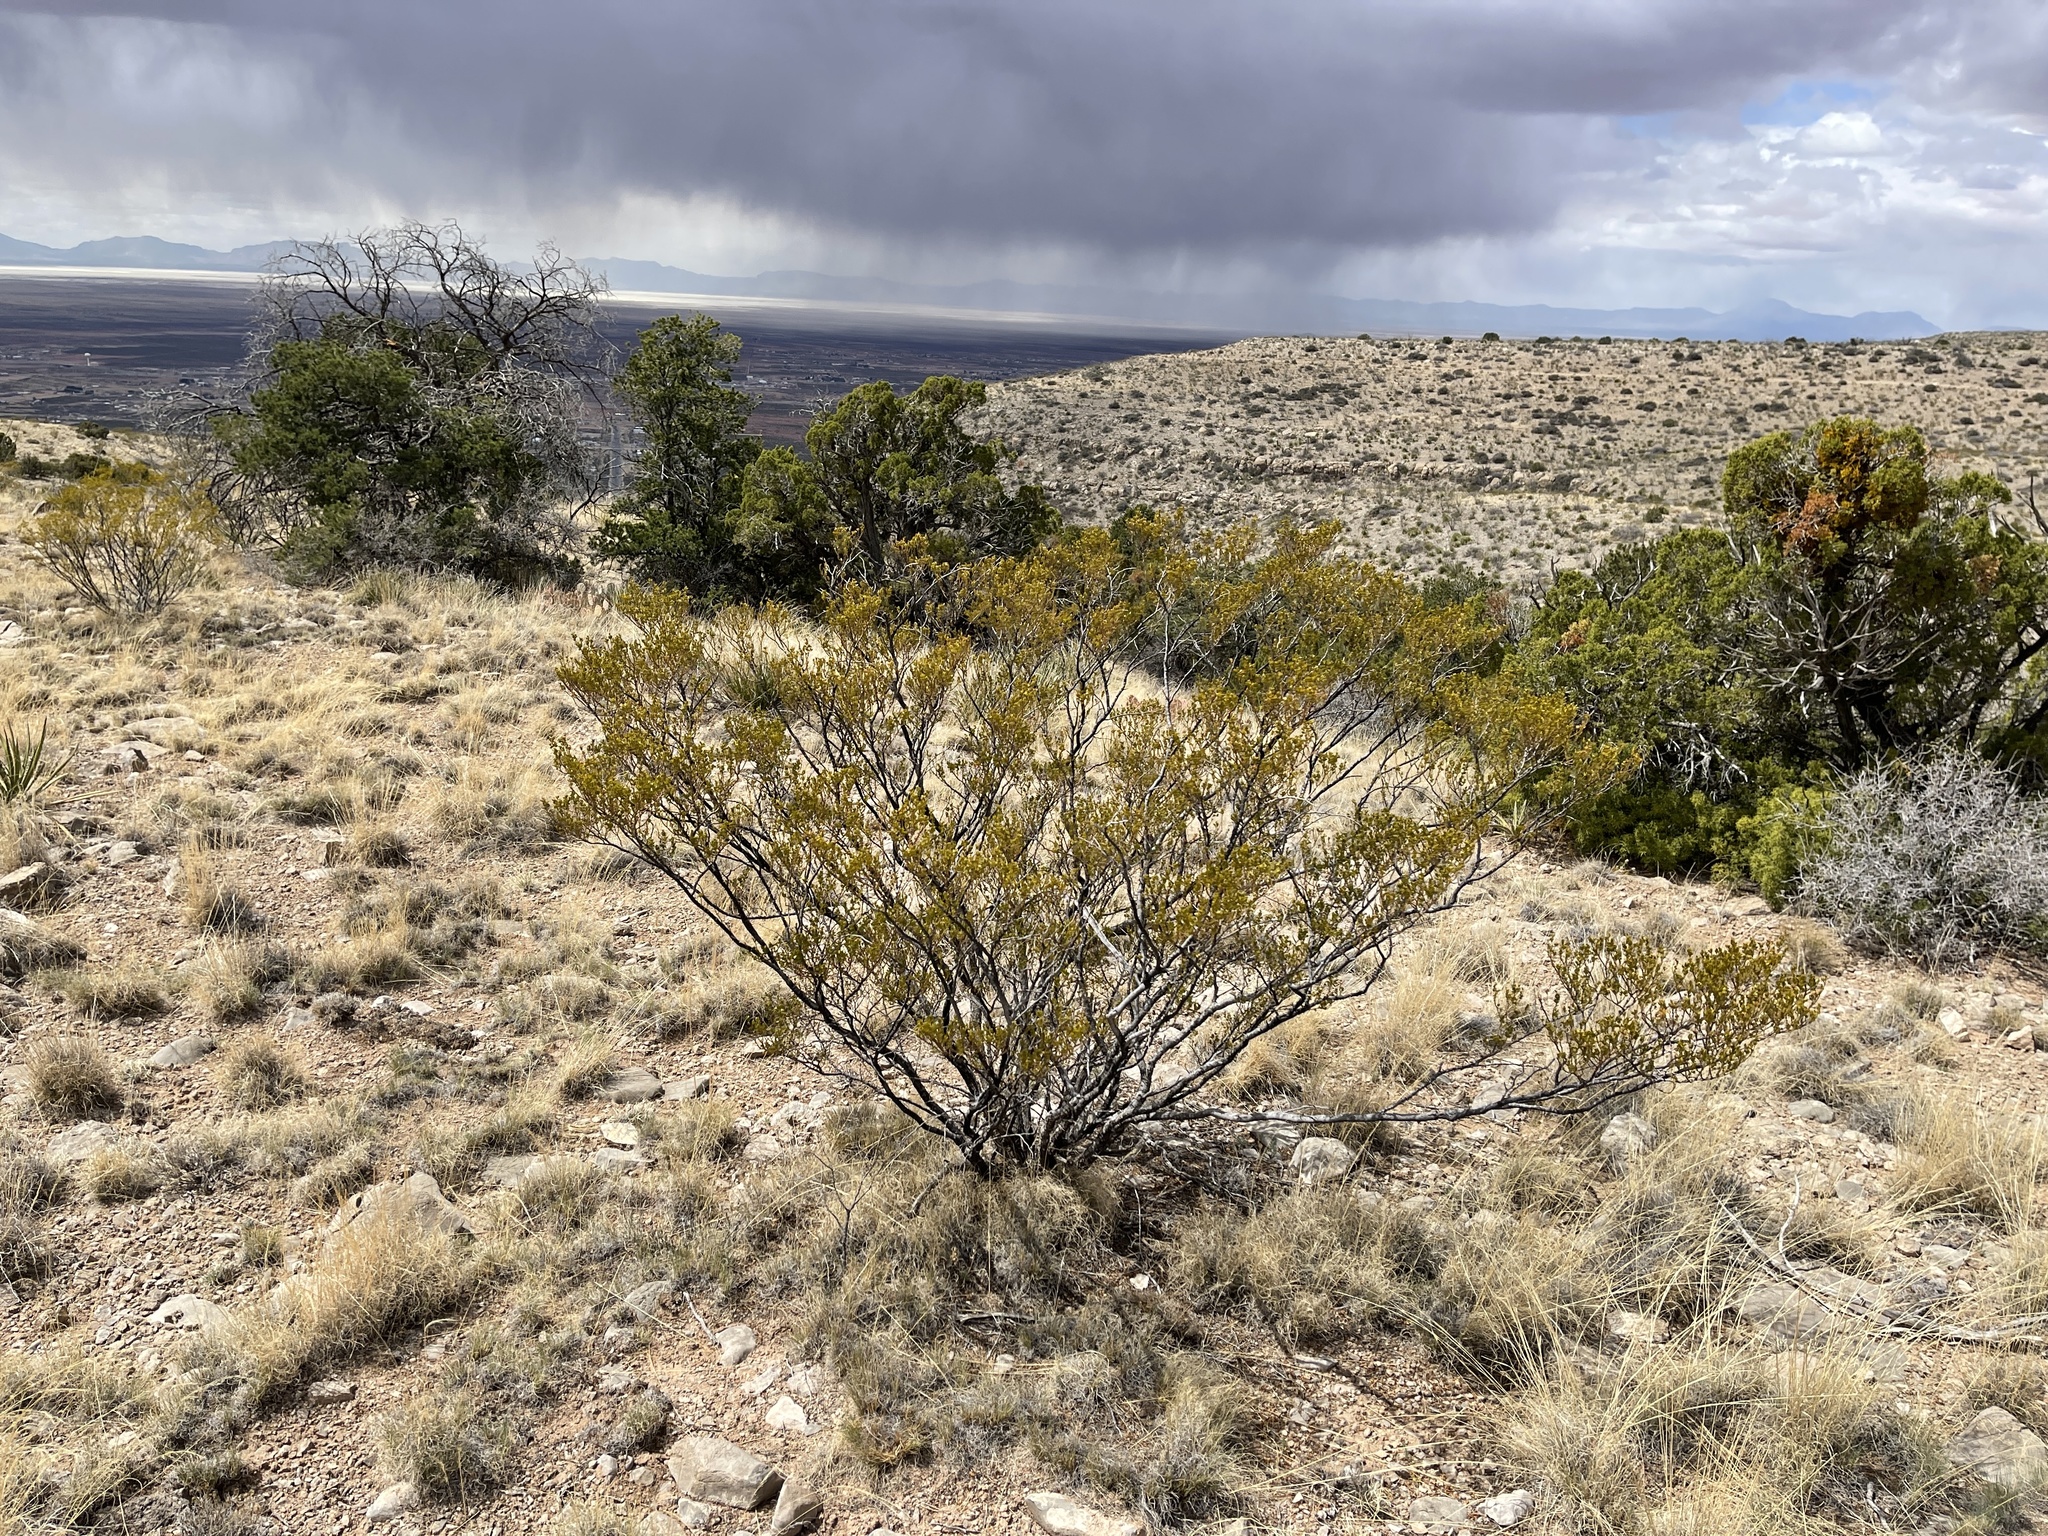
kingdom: Plantae
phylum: Tracheophyta
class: Magnoliopsida
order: Zygophyllales
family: Zygophyllaceae
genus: Larrea
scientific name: Larrea tridentata
